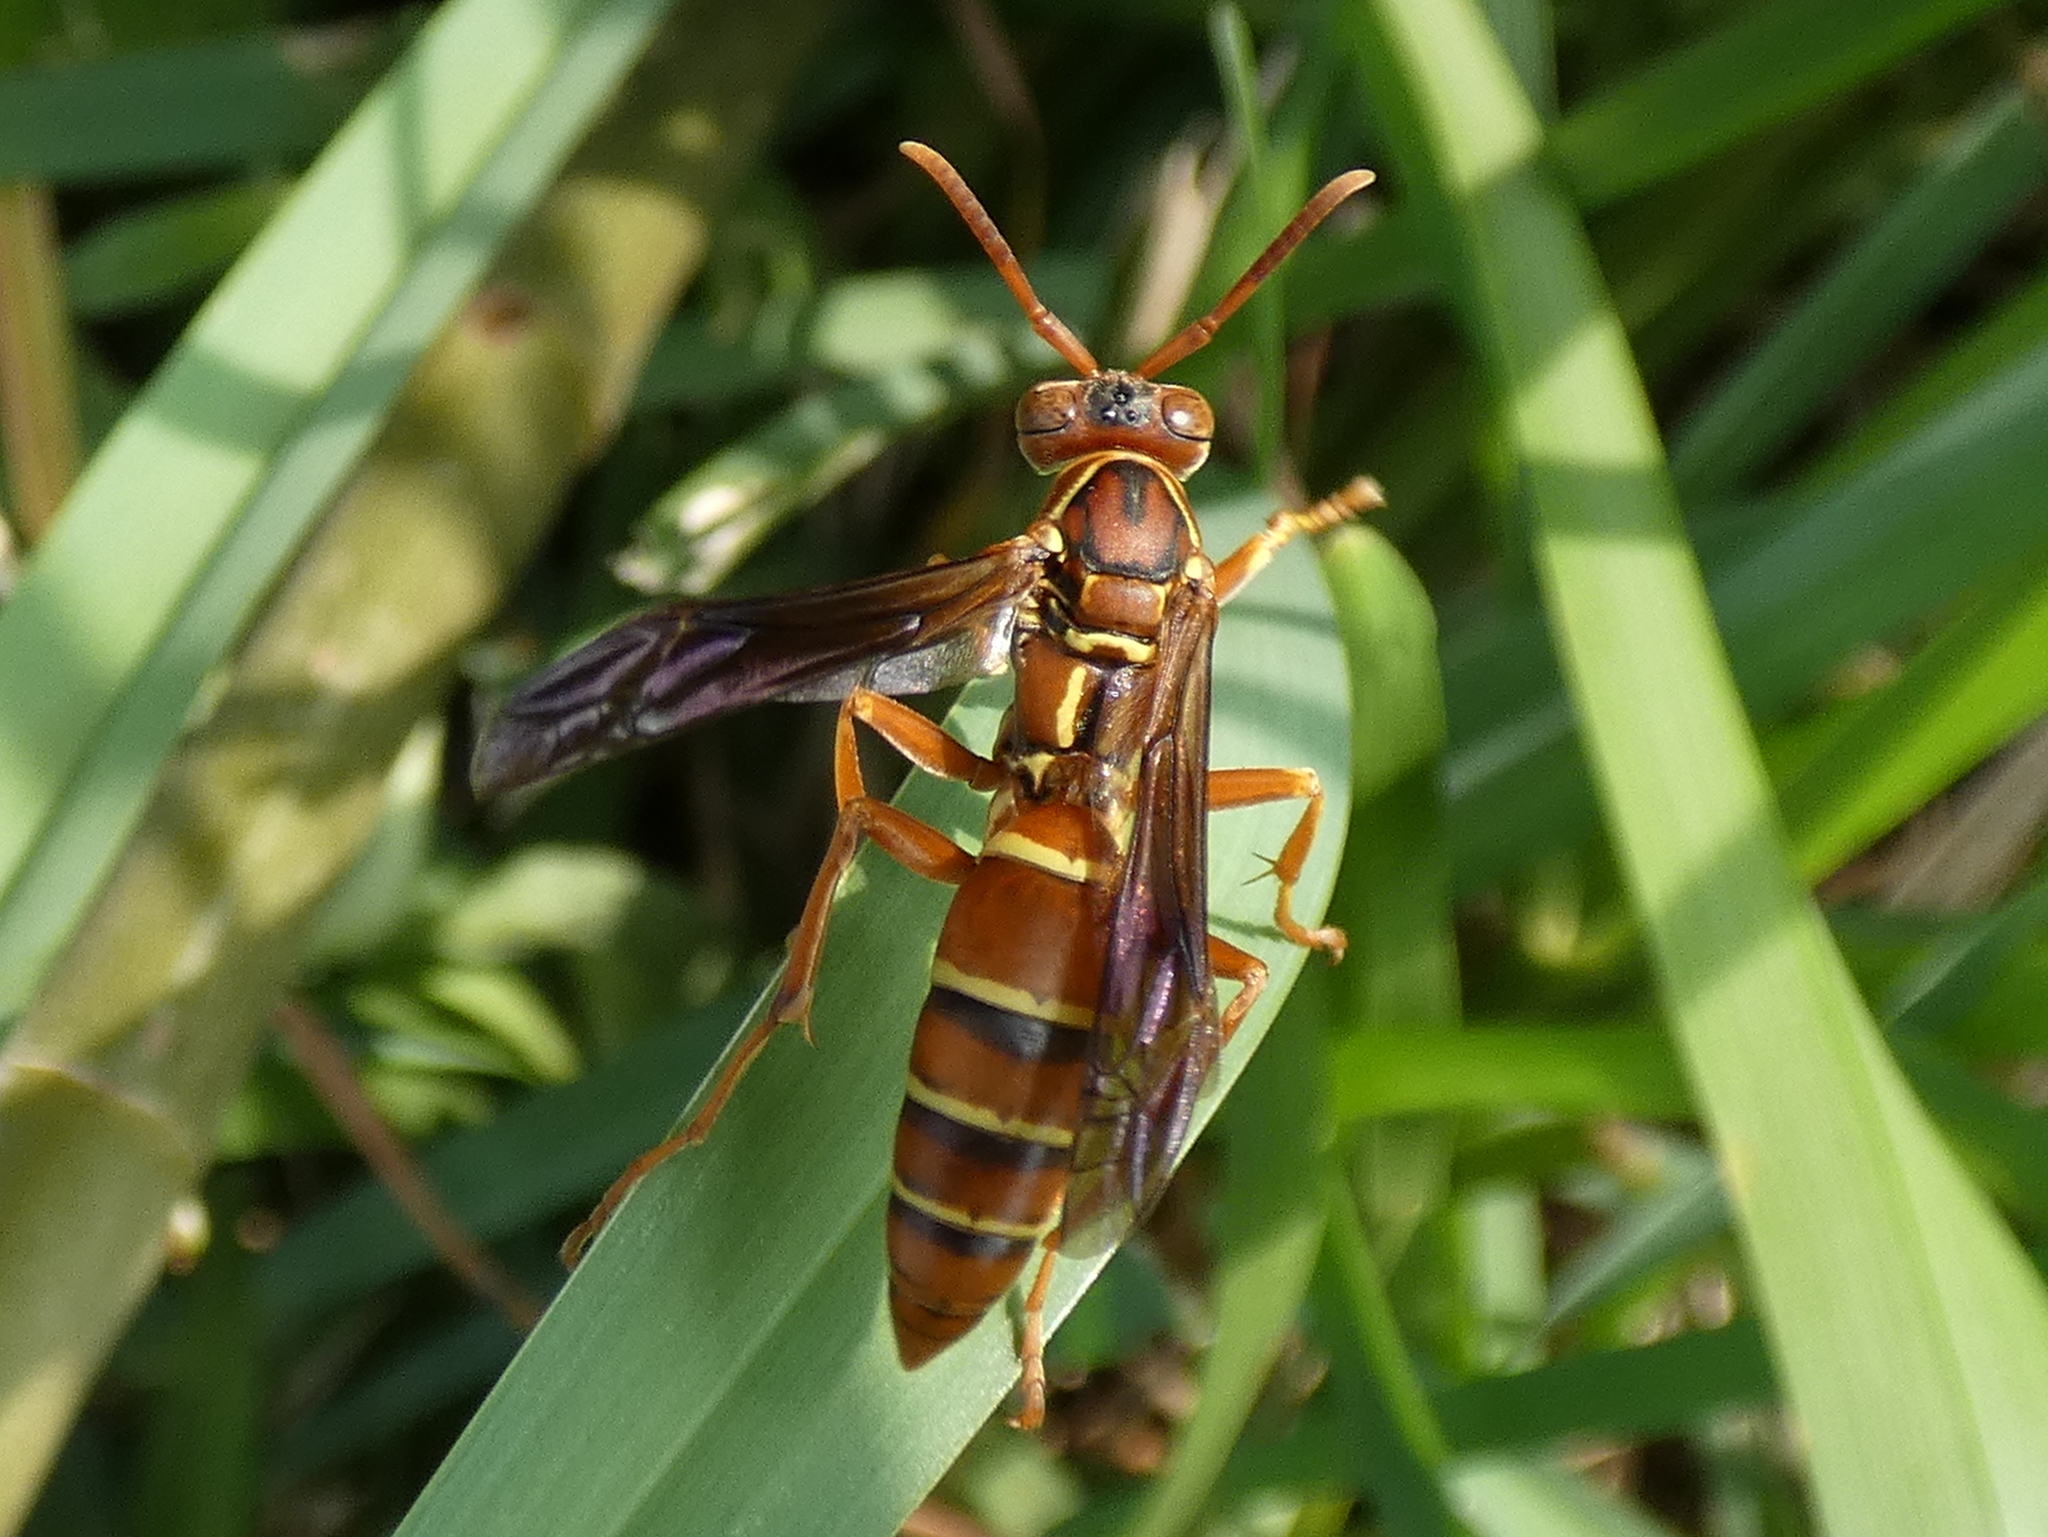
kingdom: Animalia
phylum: Arthropoda
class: Insecta
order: Hymenoptera
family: Eumenidae
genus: Polistes
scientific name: Polistes bellicosus
